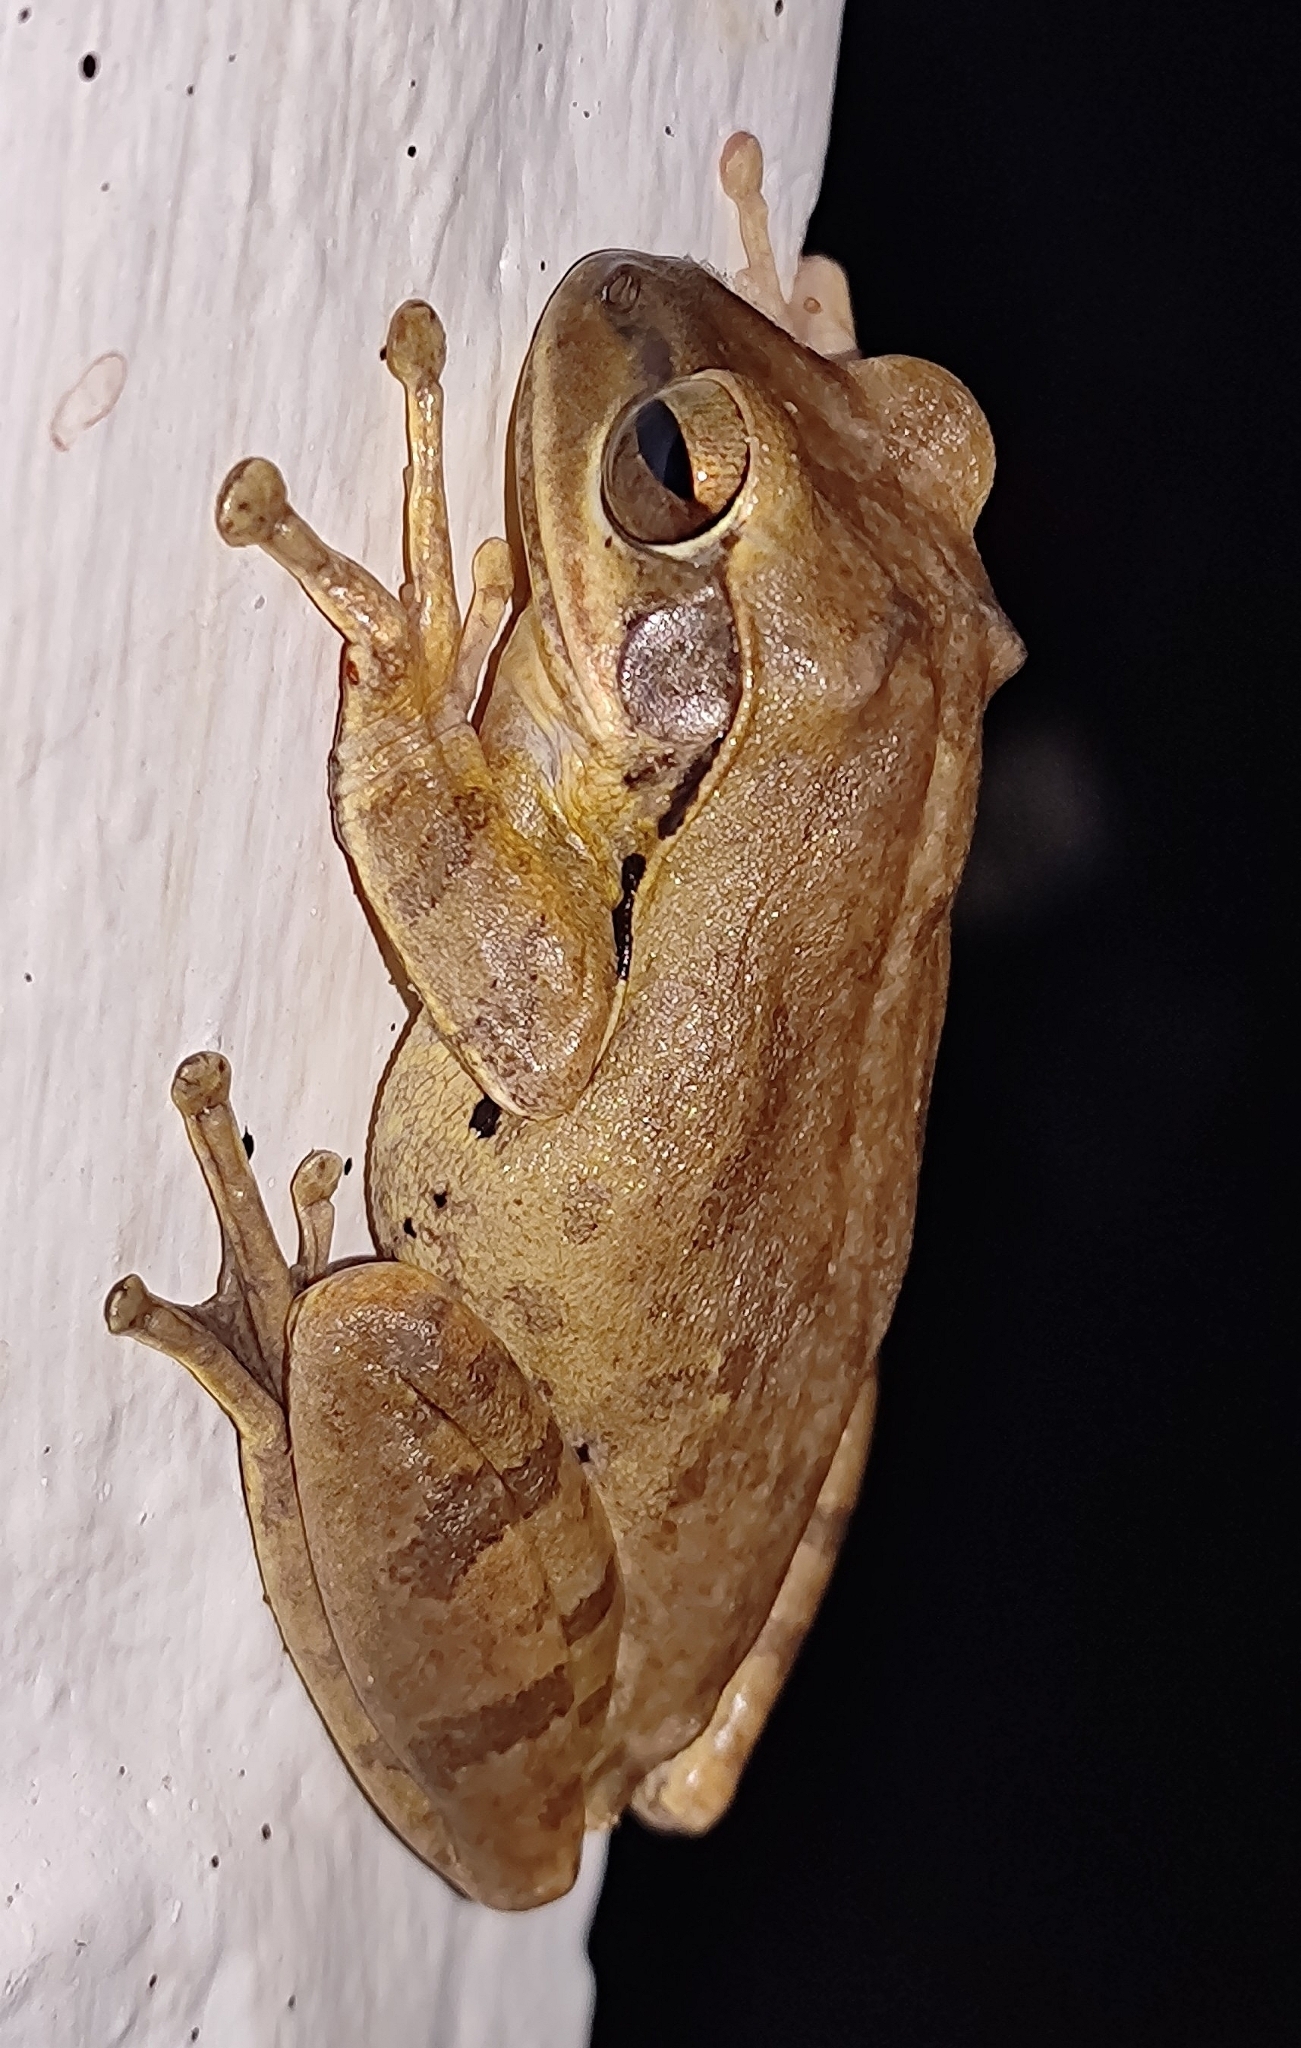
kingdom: Animalia
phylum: Chordata
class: Amphibia
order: Anura
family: Rhacophoridae
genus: Polypedates
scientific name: Polypedates maculatus
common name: Himalayan tree frog
